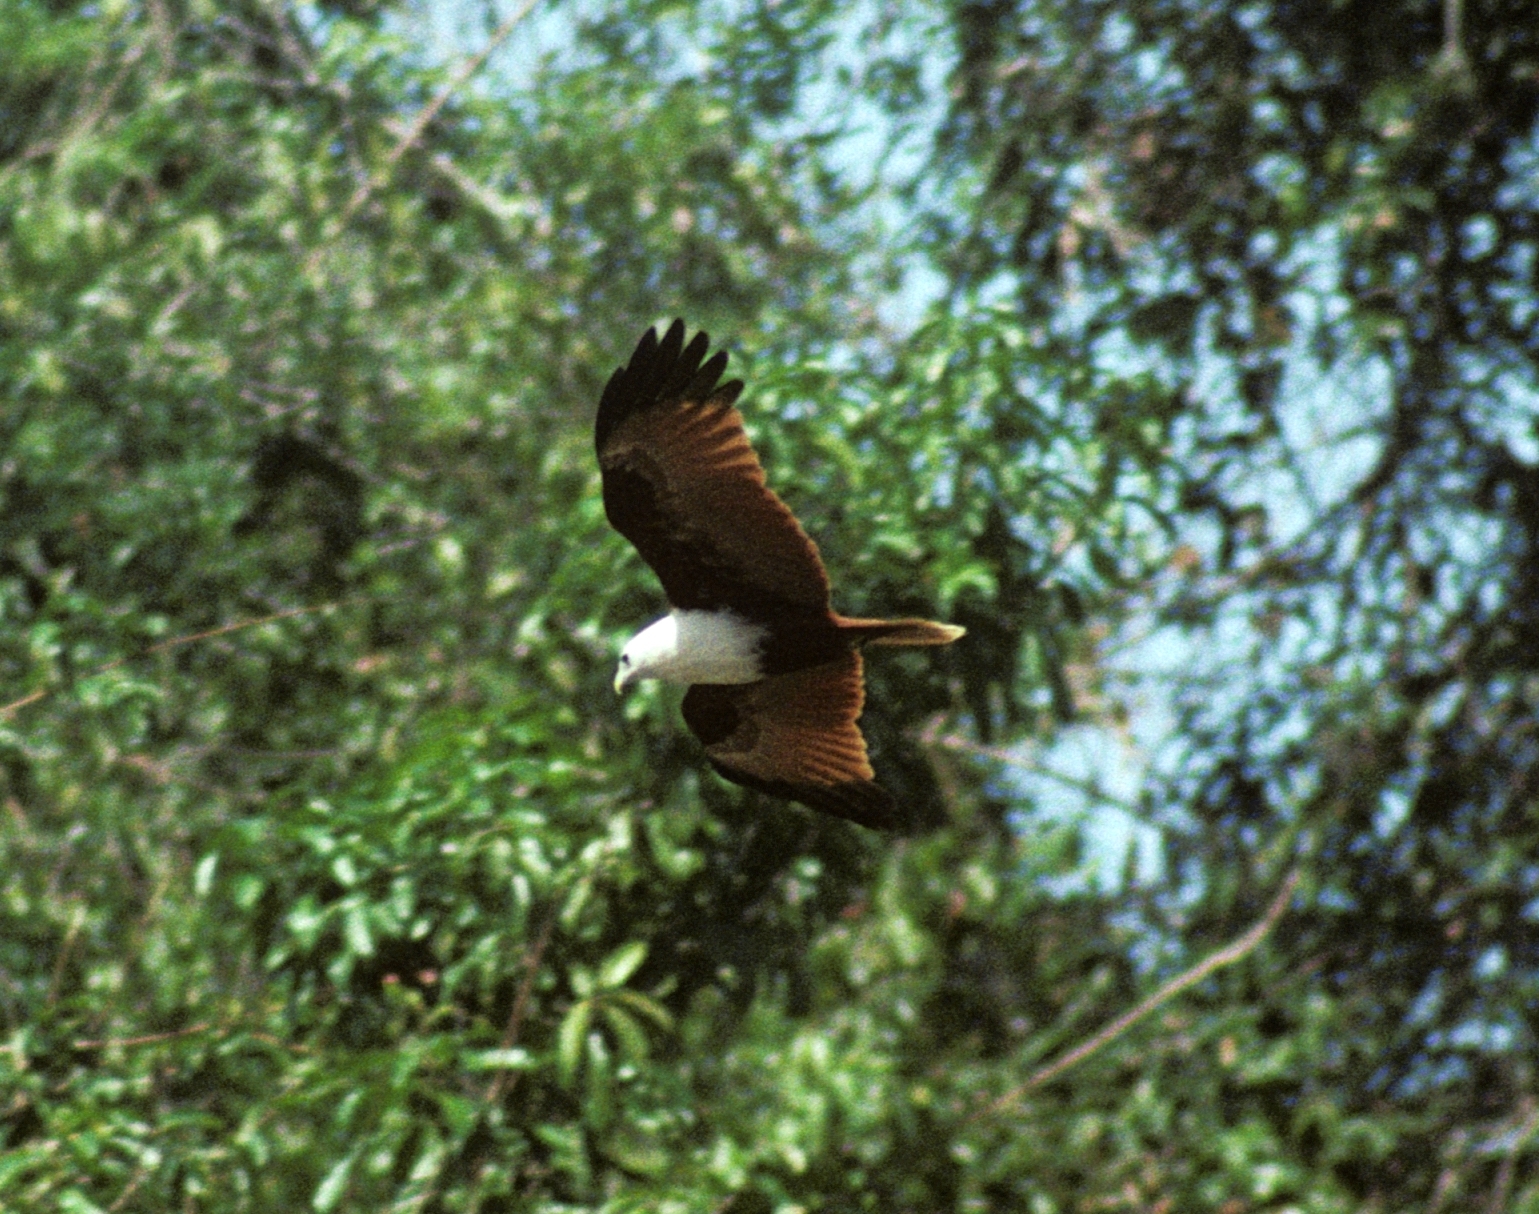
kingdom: Animalia
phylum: Chordata
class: Aves
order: Accipitriformes
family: Accipitridae
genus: Haliastur
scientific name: Haliastur indus
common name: Brahminy kite
